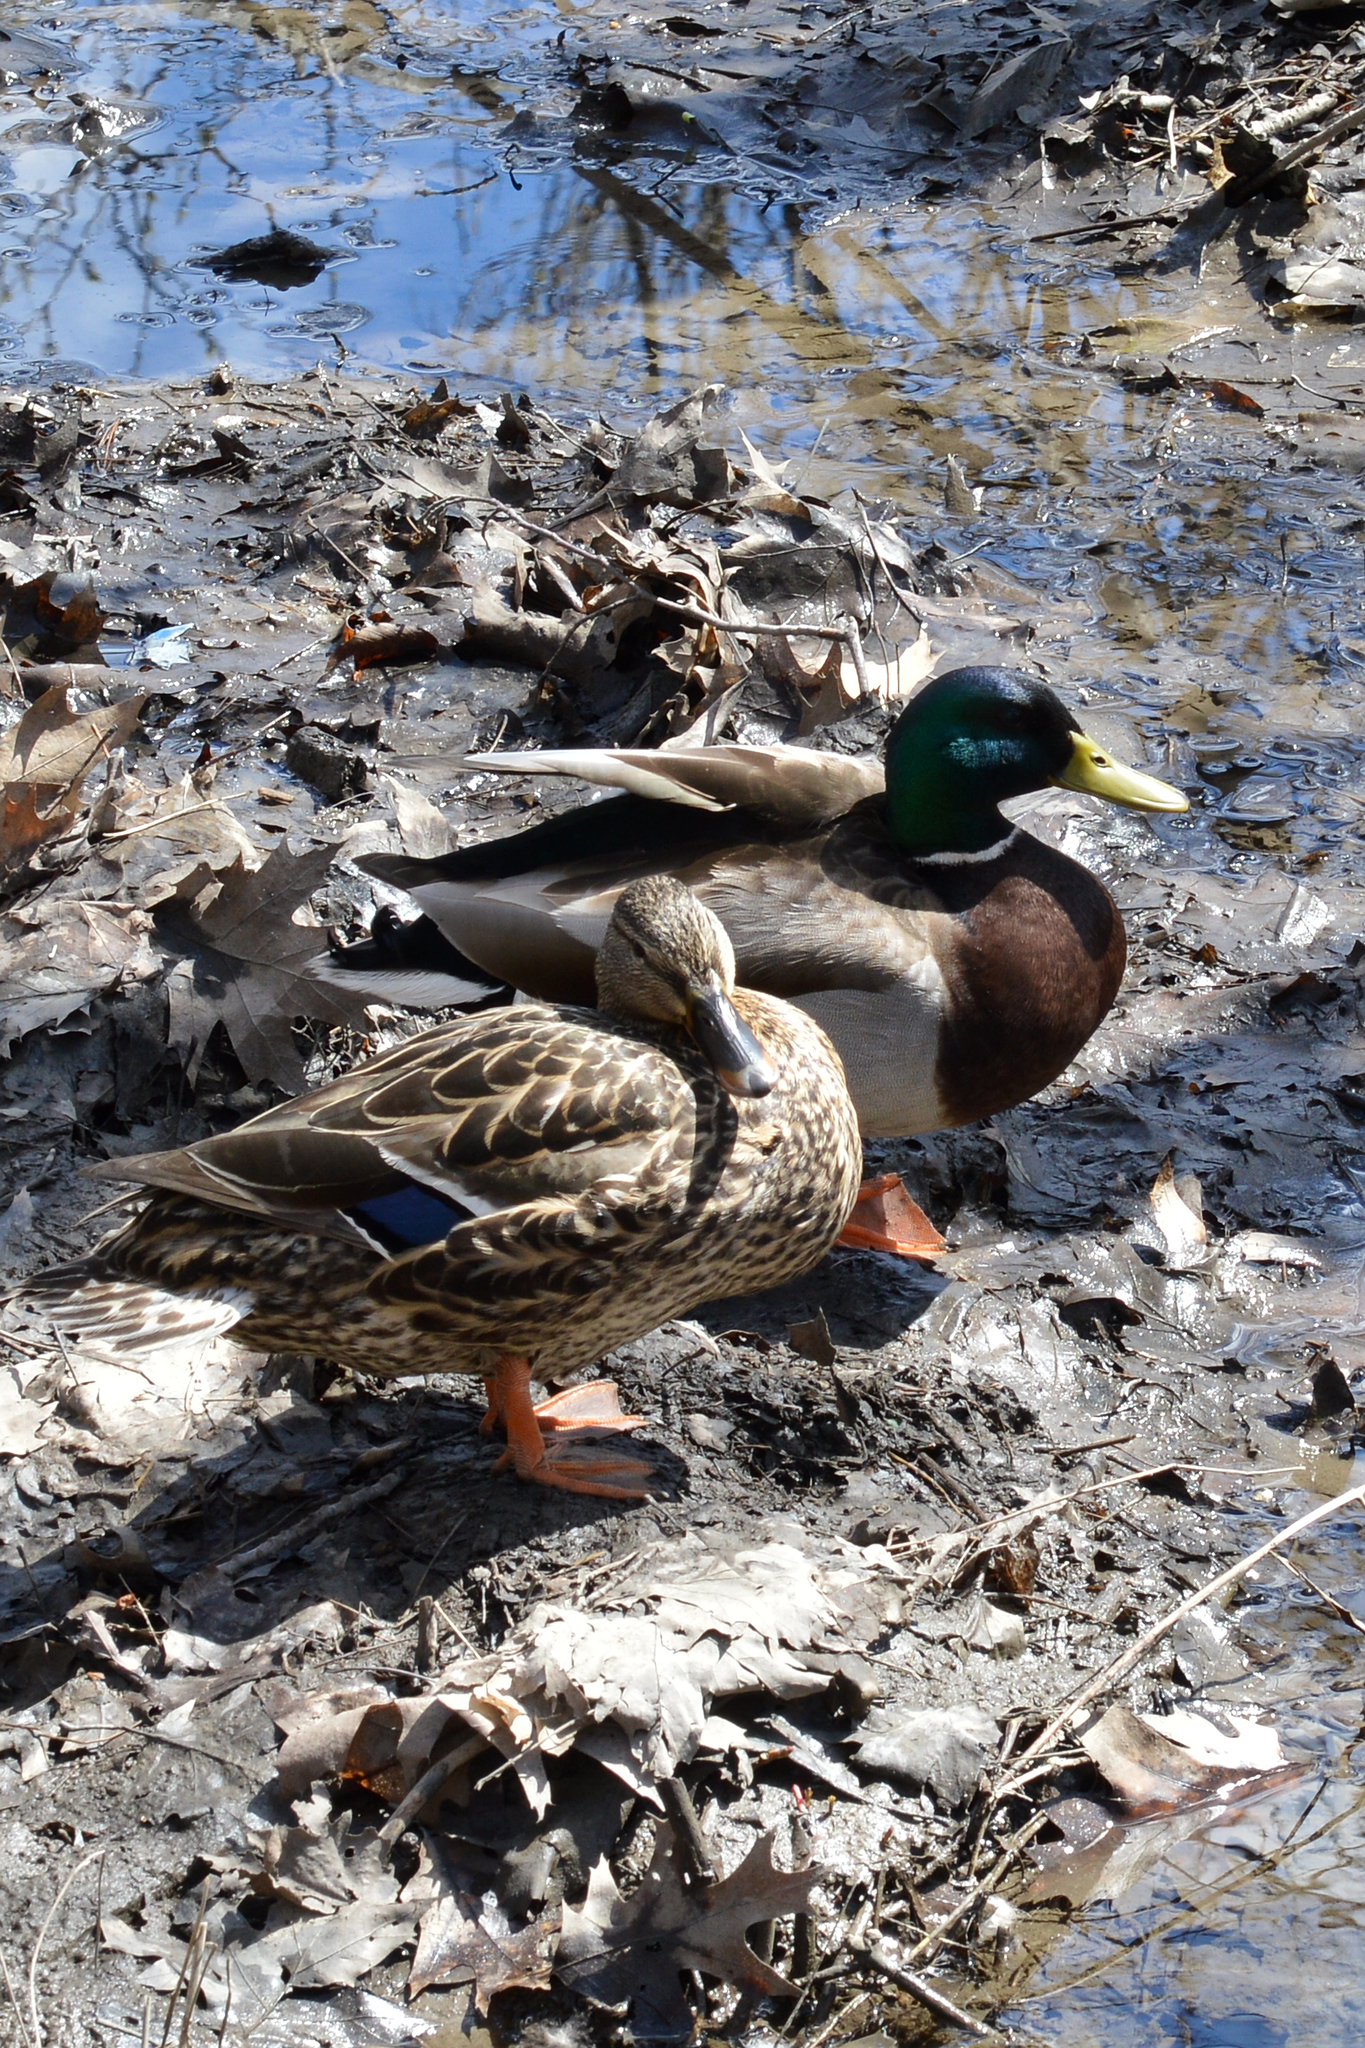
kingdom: Animalia
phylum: Chordata
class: Aves
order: Anseriformes
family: Anatidae
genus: Anas
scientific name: Anas platyrhynchos
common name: Mallard
